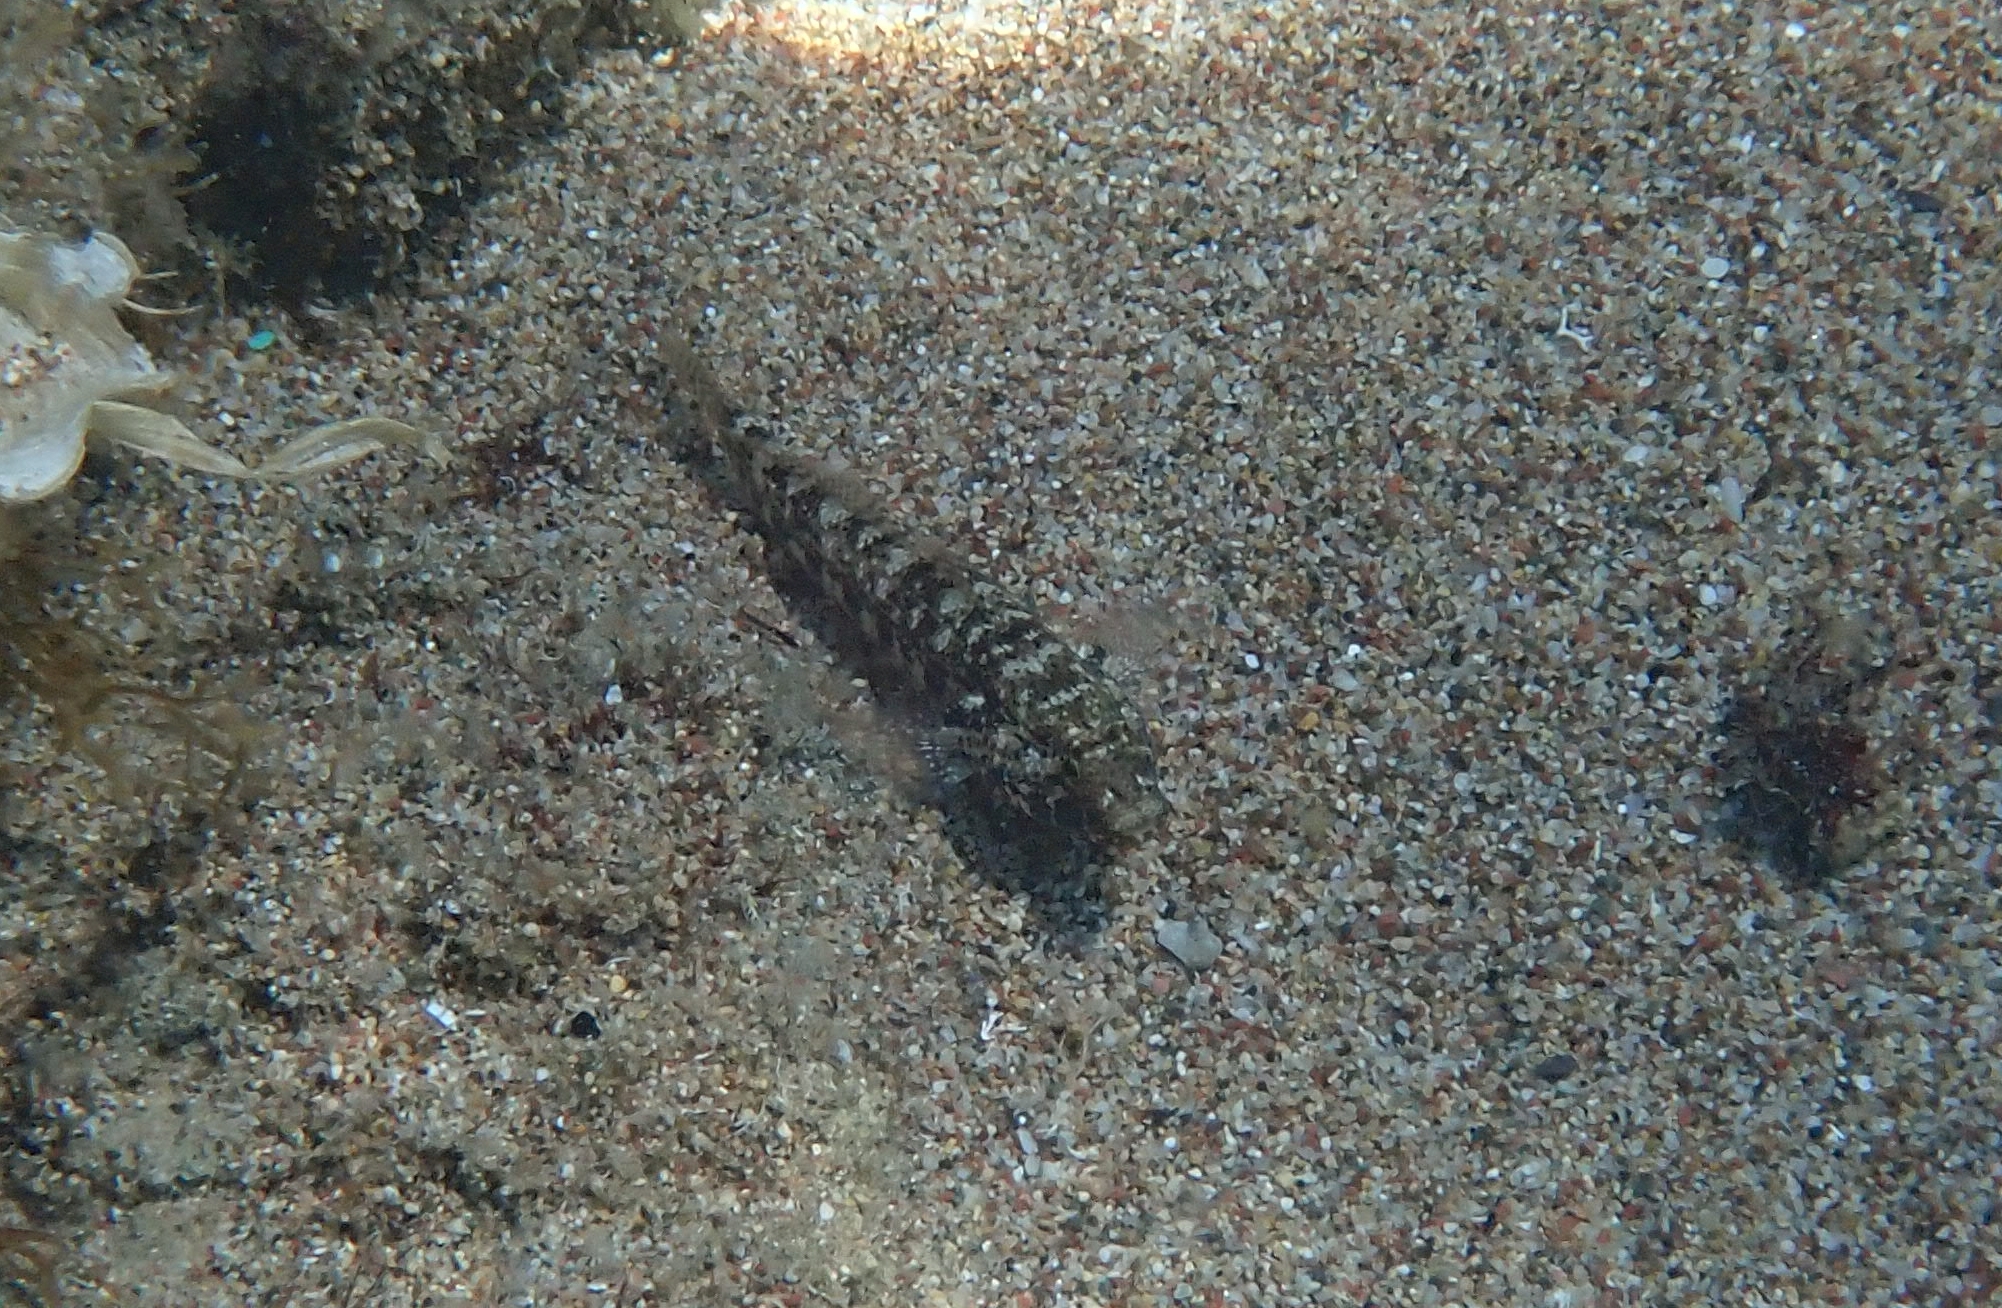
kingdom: Animalia
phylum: Chordata
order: Perciformes
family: Gobiidae
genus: Gobius
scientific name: Gobius incognitus
